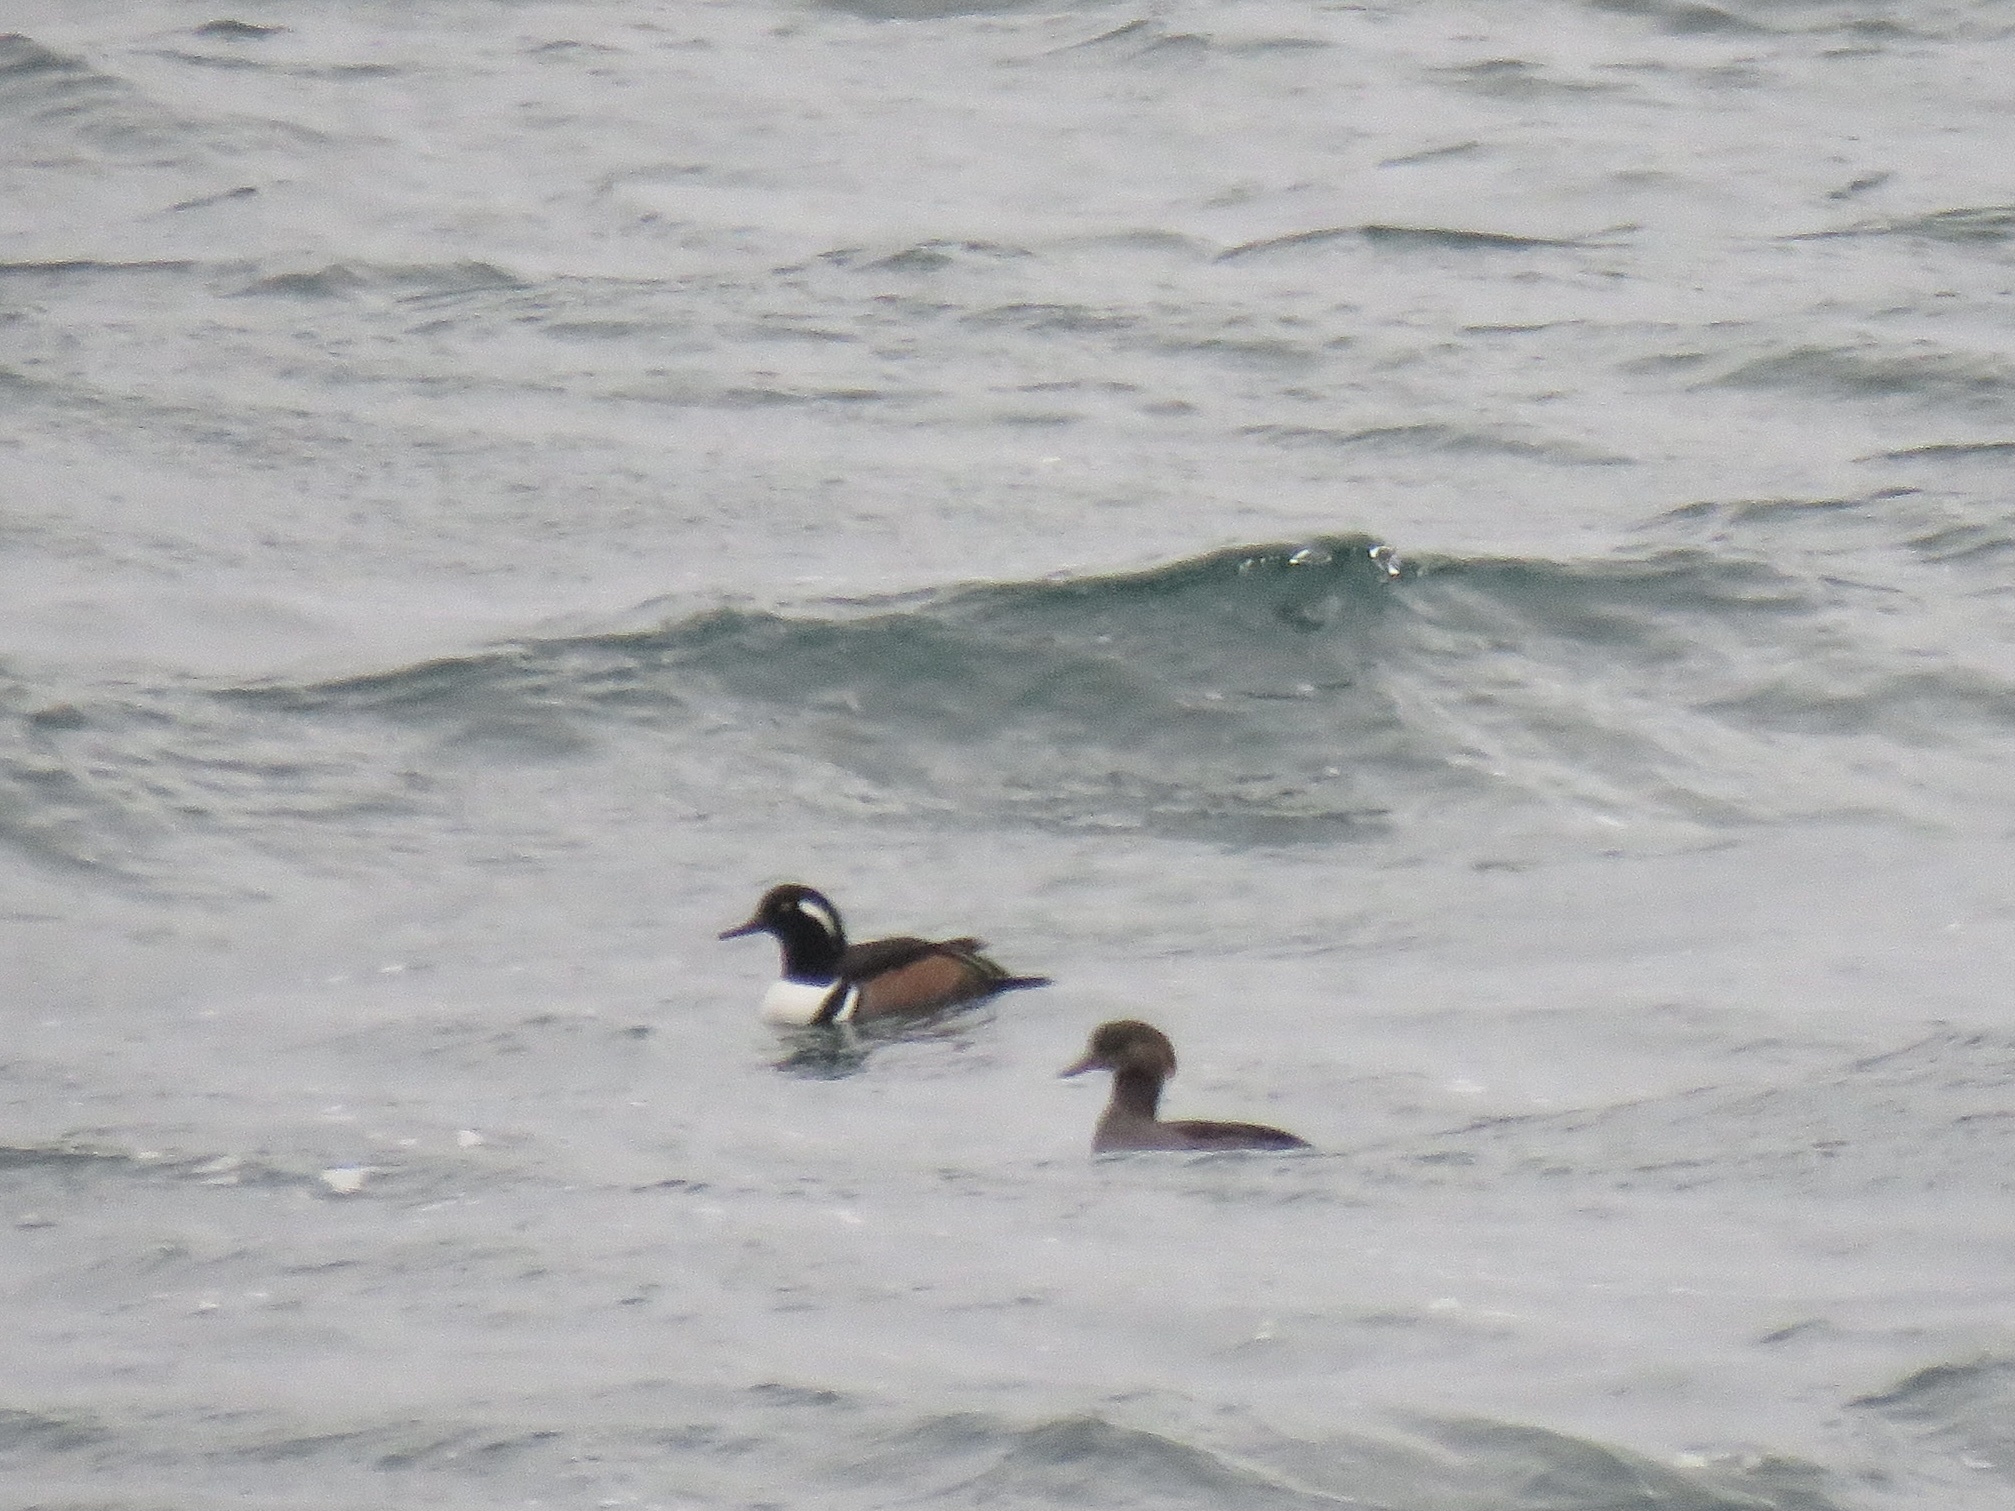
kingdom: Animalia
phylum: Chordata
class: Aves
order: Anseriformes
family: Anatidae
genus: Lophodytes
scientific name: Lophodytes cucullatus
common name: Hooded merganser
